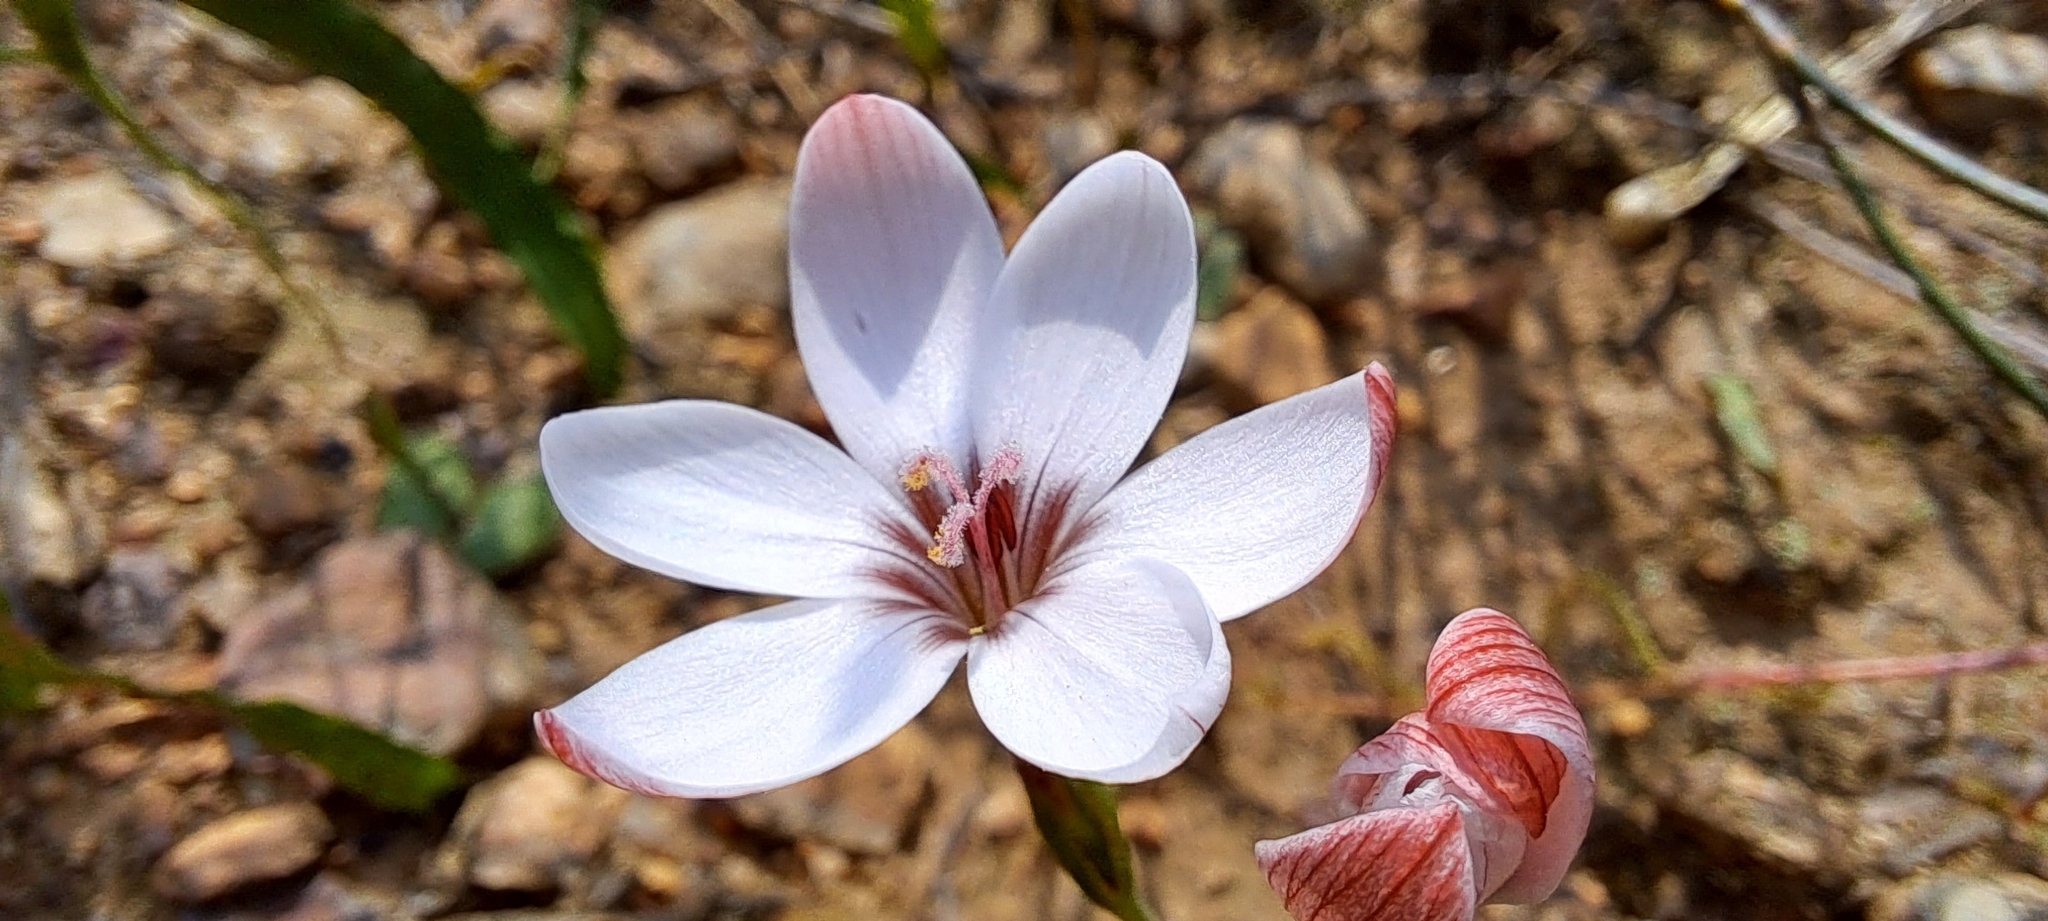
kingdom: Plantae
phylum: Tracheophyta
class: Liliopsida
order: Asparagales
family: Iridaceae
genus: Geissorhiza
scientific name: Geissorhiza ovata
